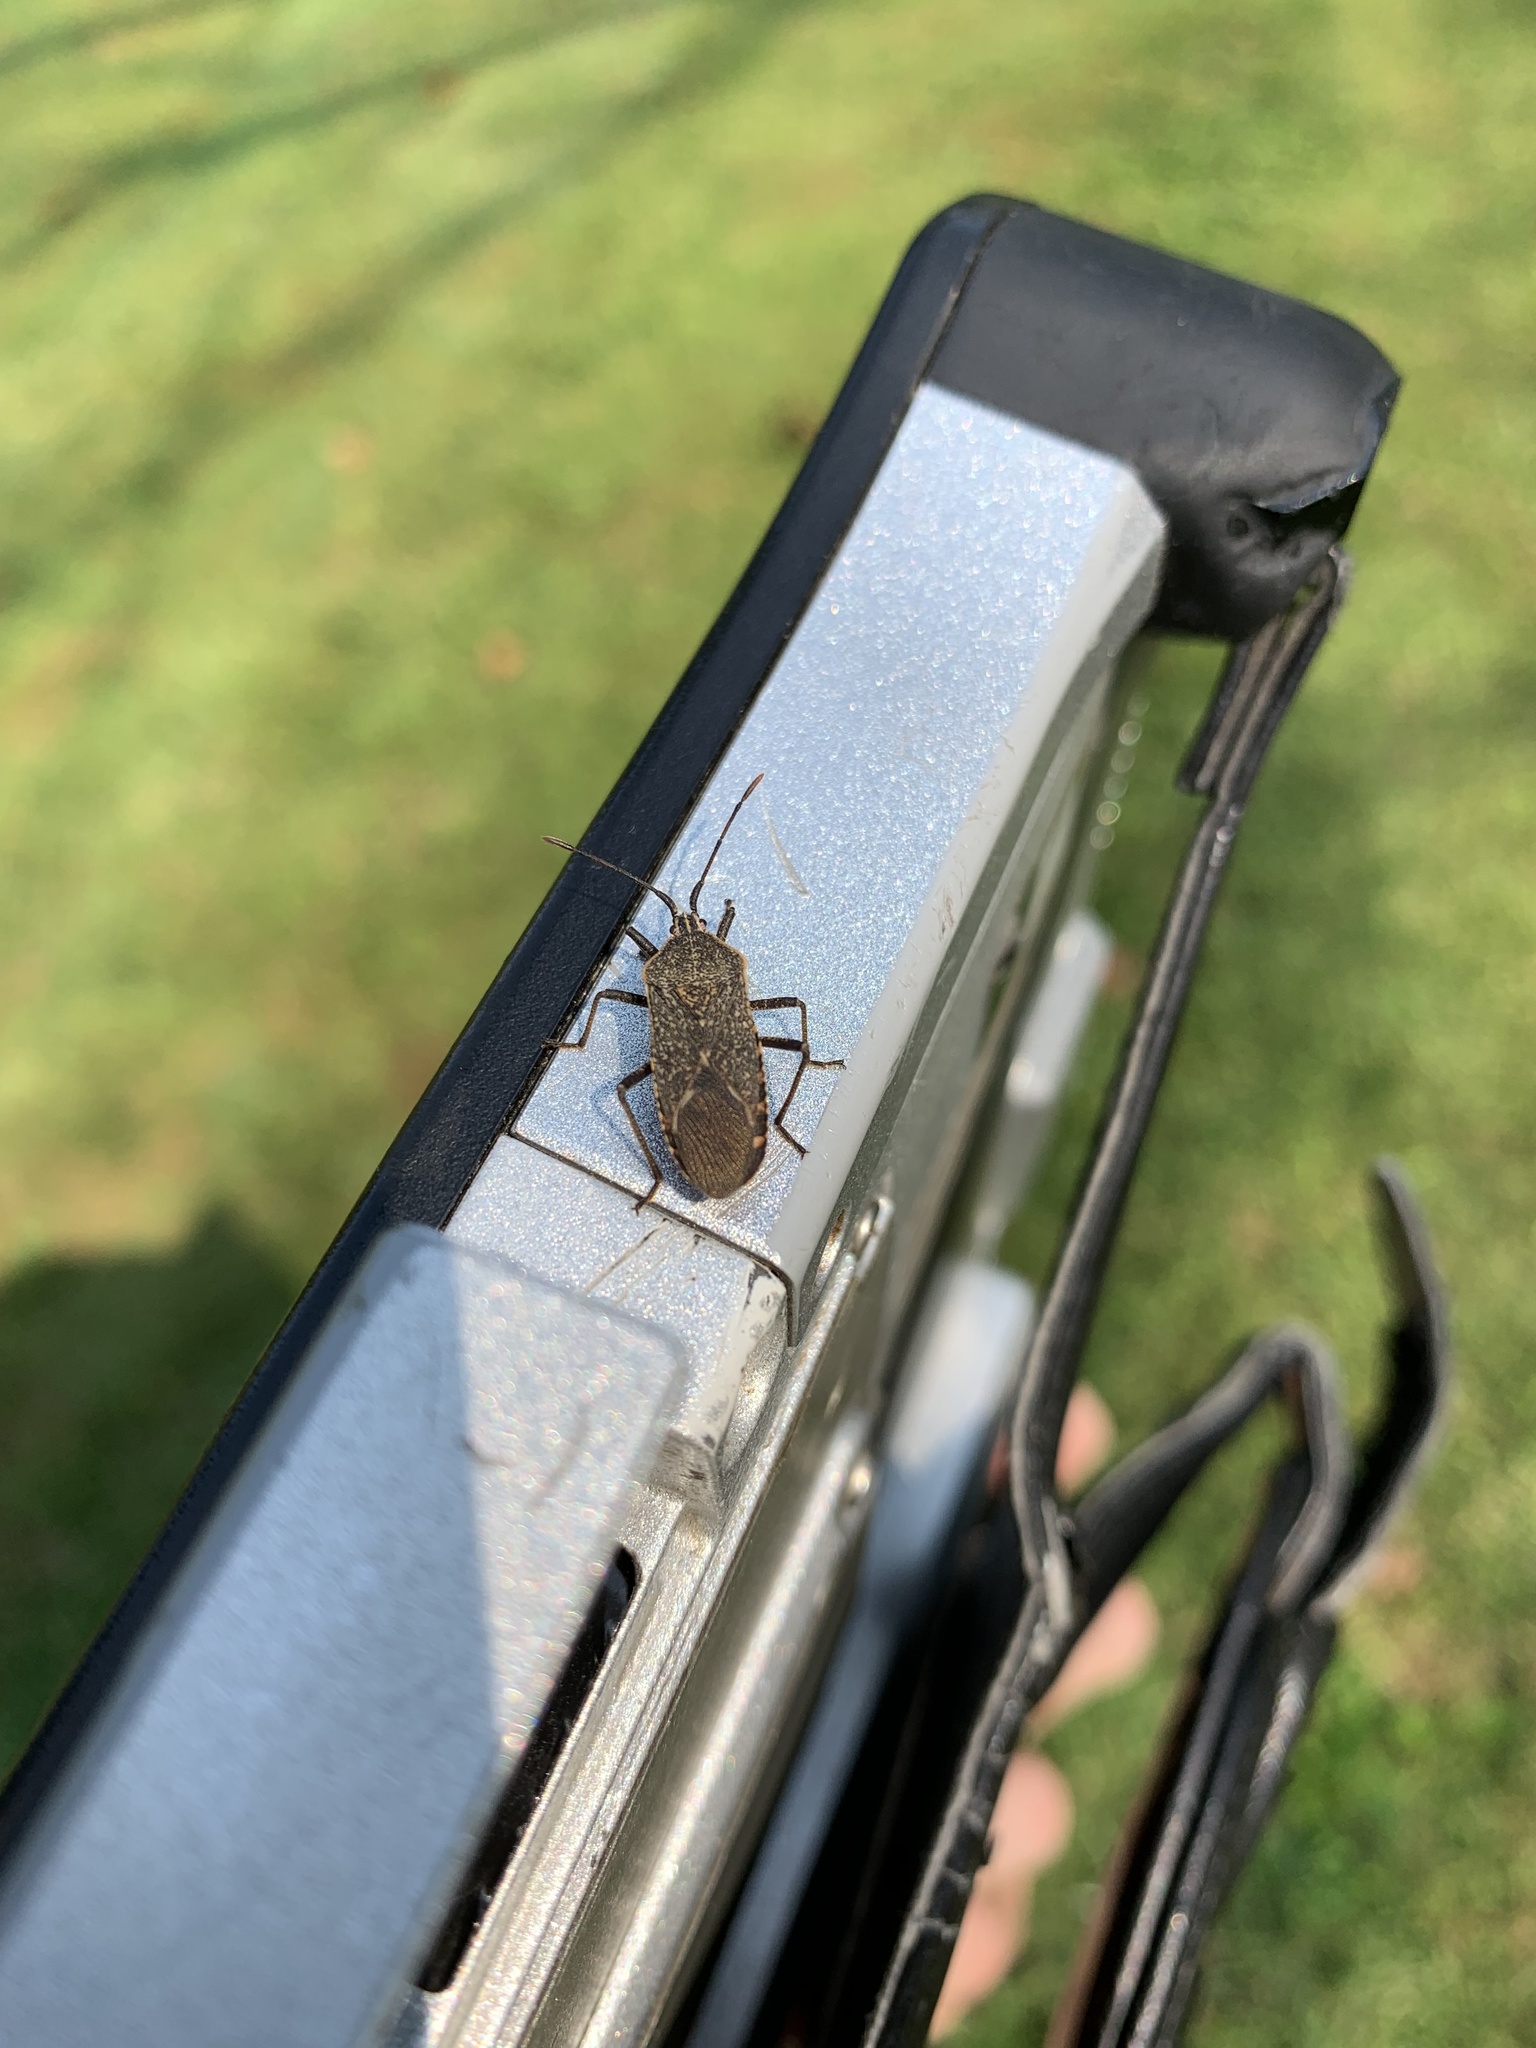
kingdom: Animalia
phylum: Arthropoda
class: Insecta
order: Hemiptera
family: Coreidae
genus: Anasa
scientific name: Anasa tristis
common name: Squash bug
